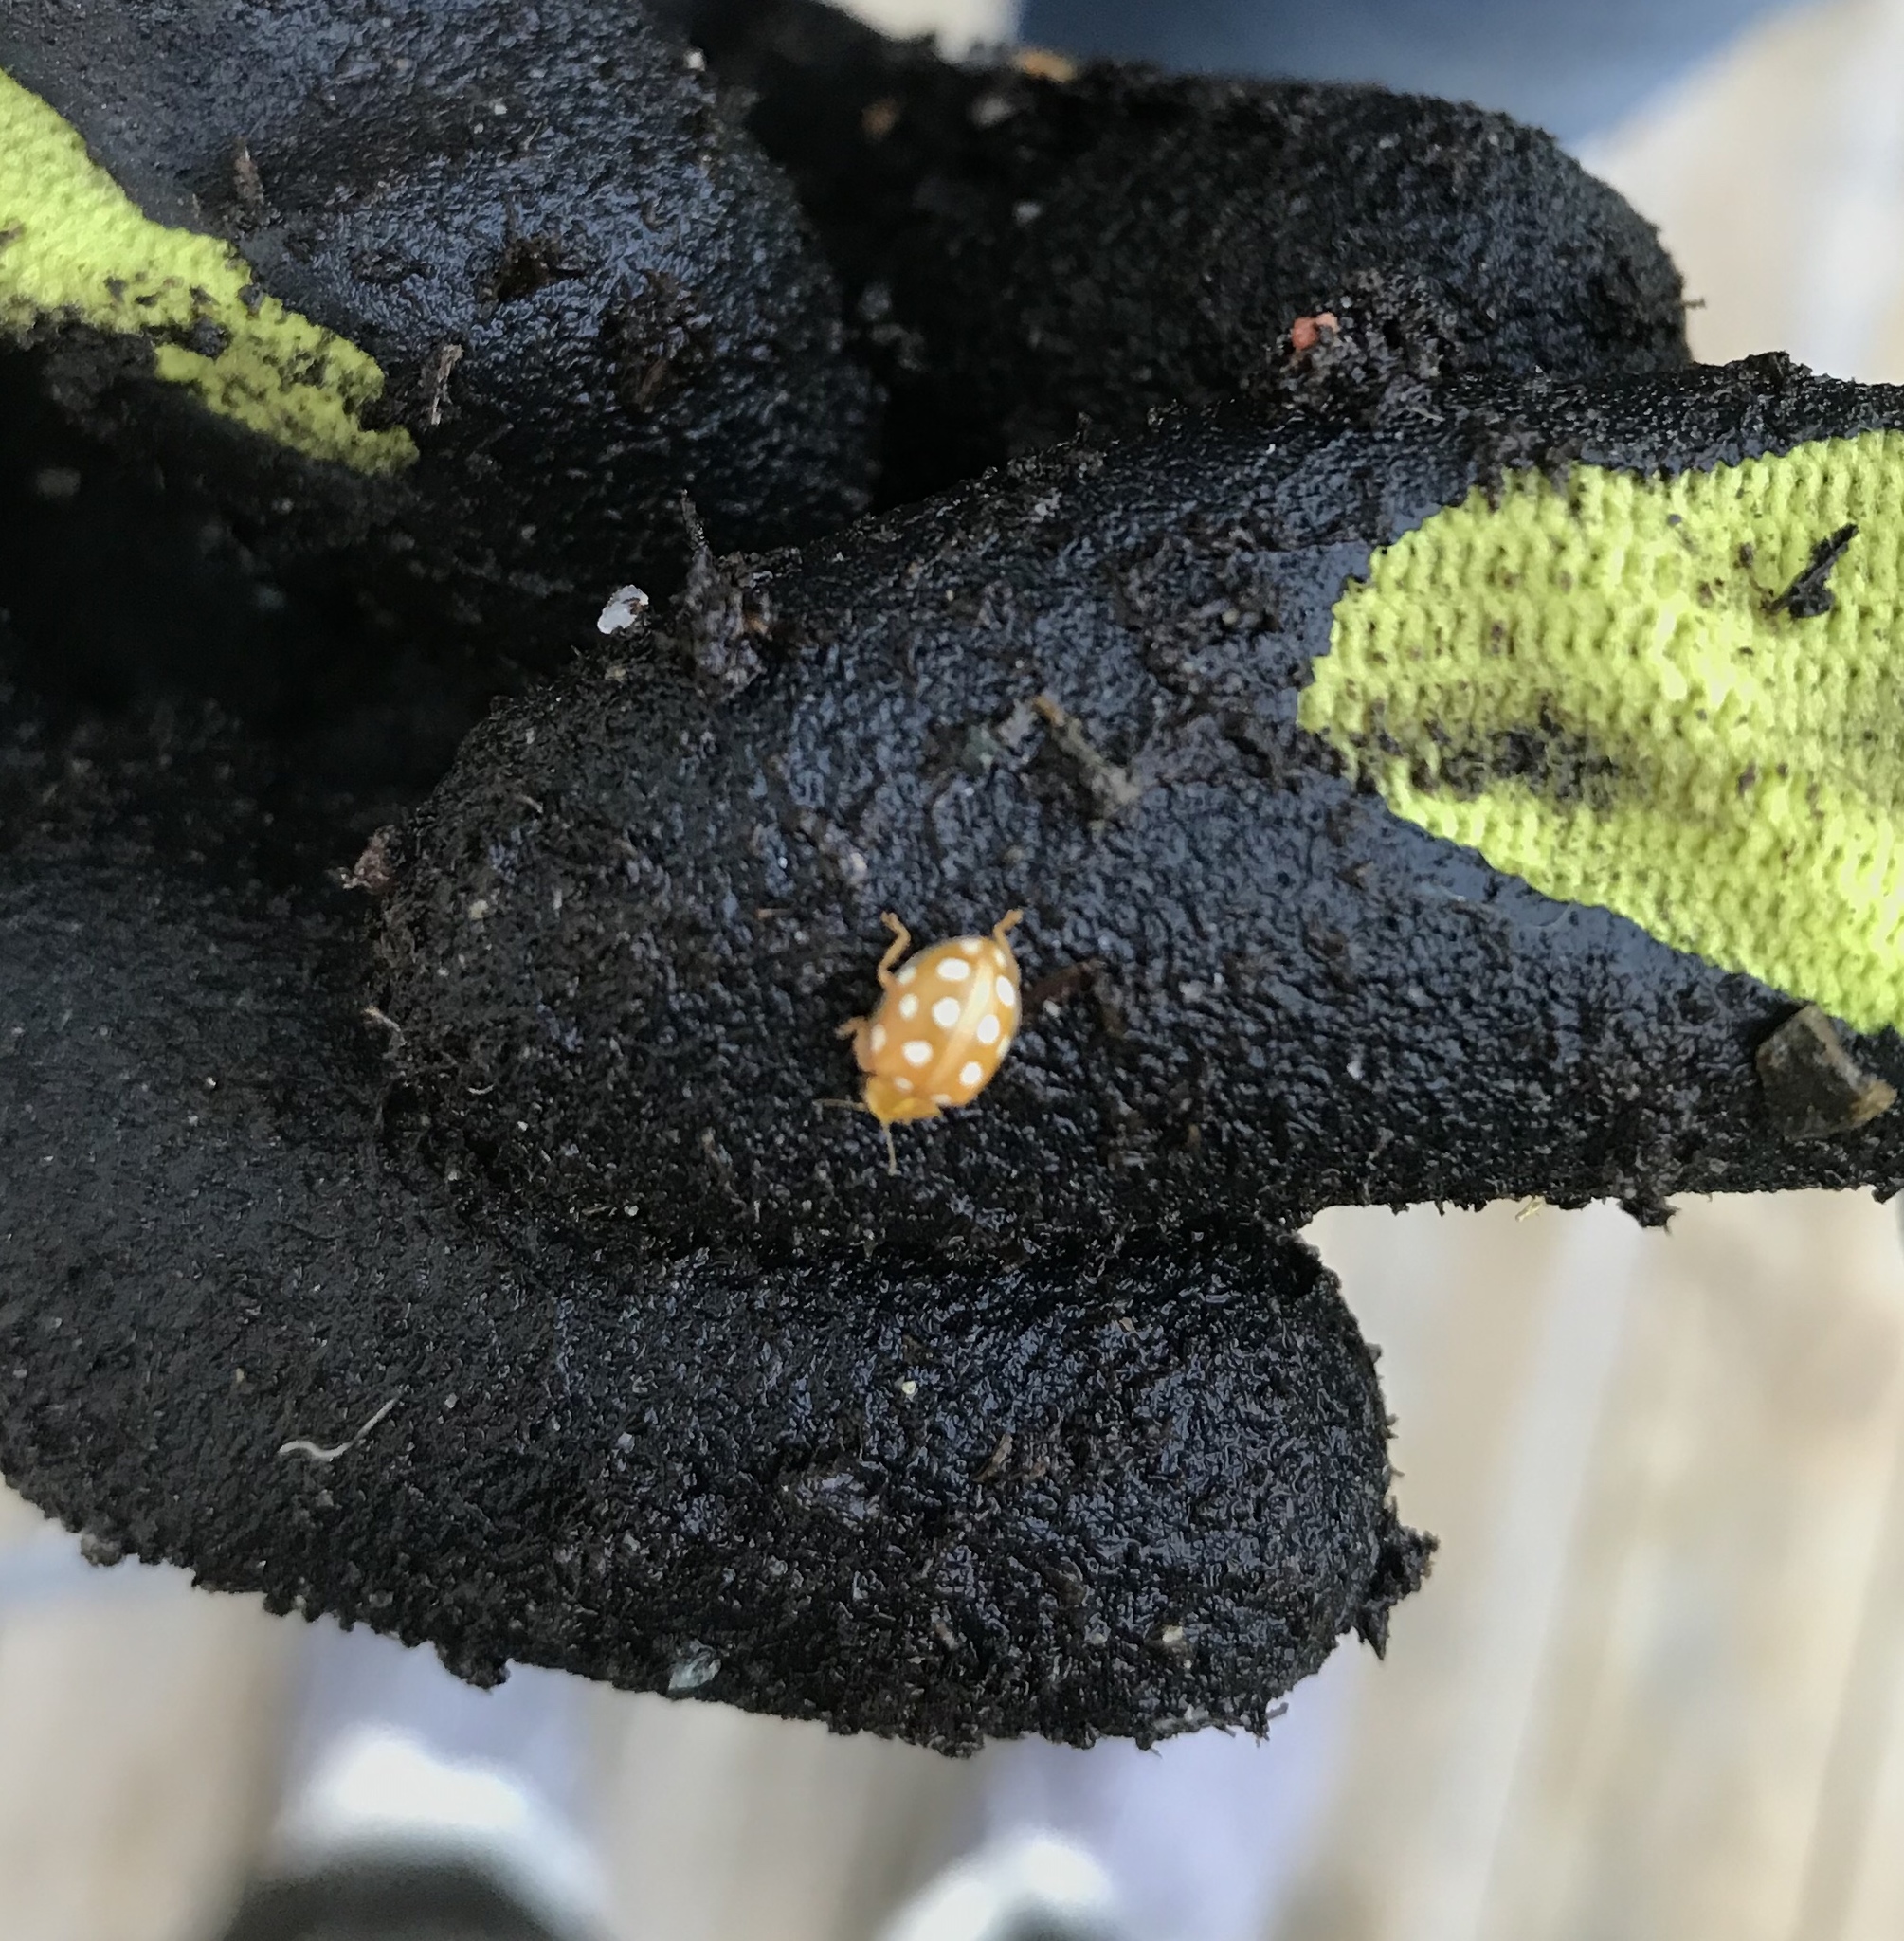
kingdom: Animalia
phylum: Arthropoda
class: Insecta
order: Coleoptera
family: Coccinellidae
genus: Halyzia
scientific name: Halyzia sedecimguttata
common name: Orange ladybird
